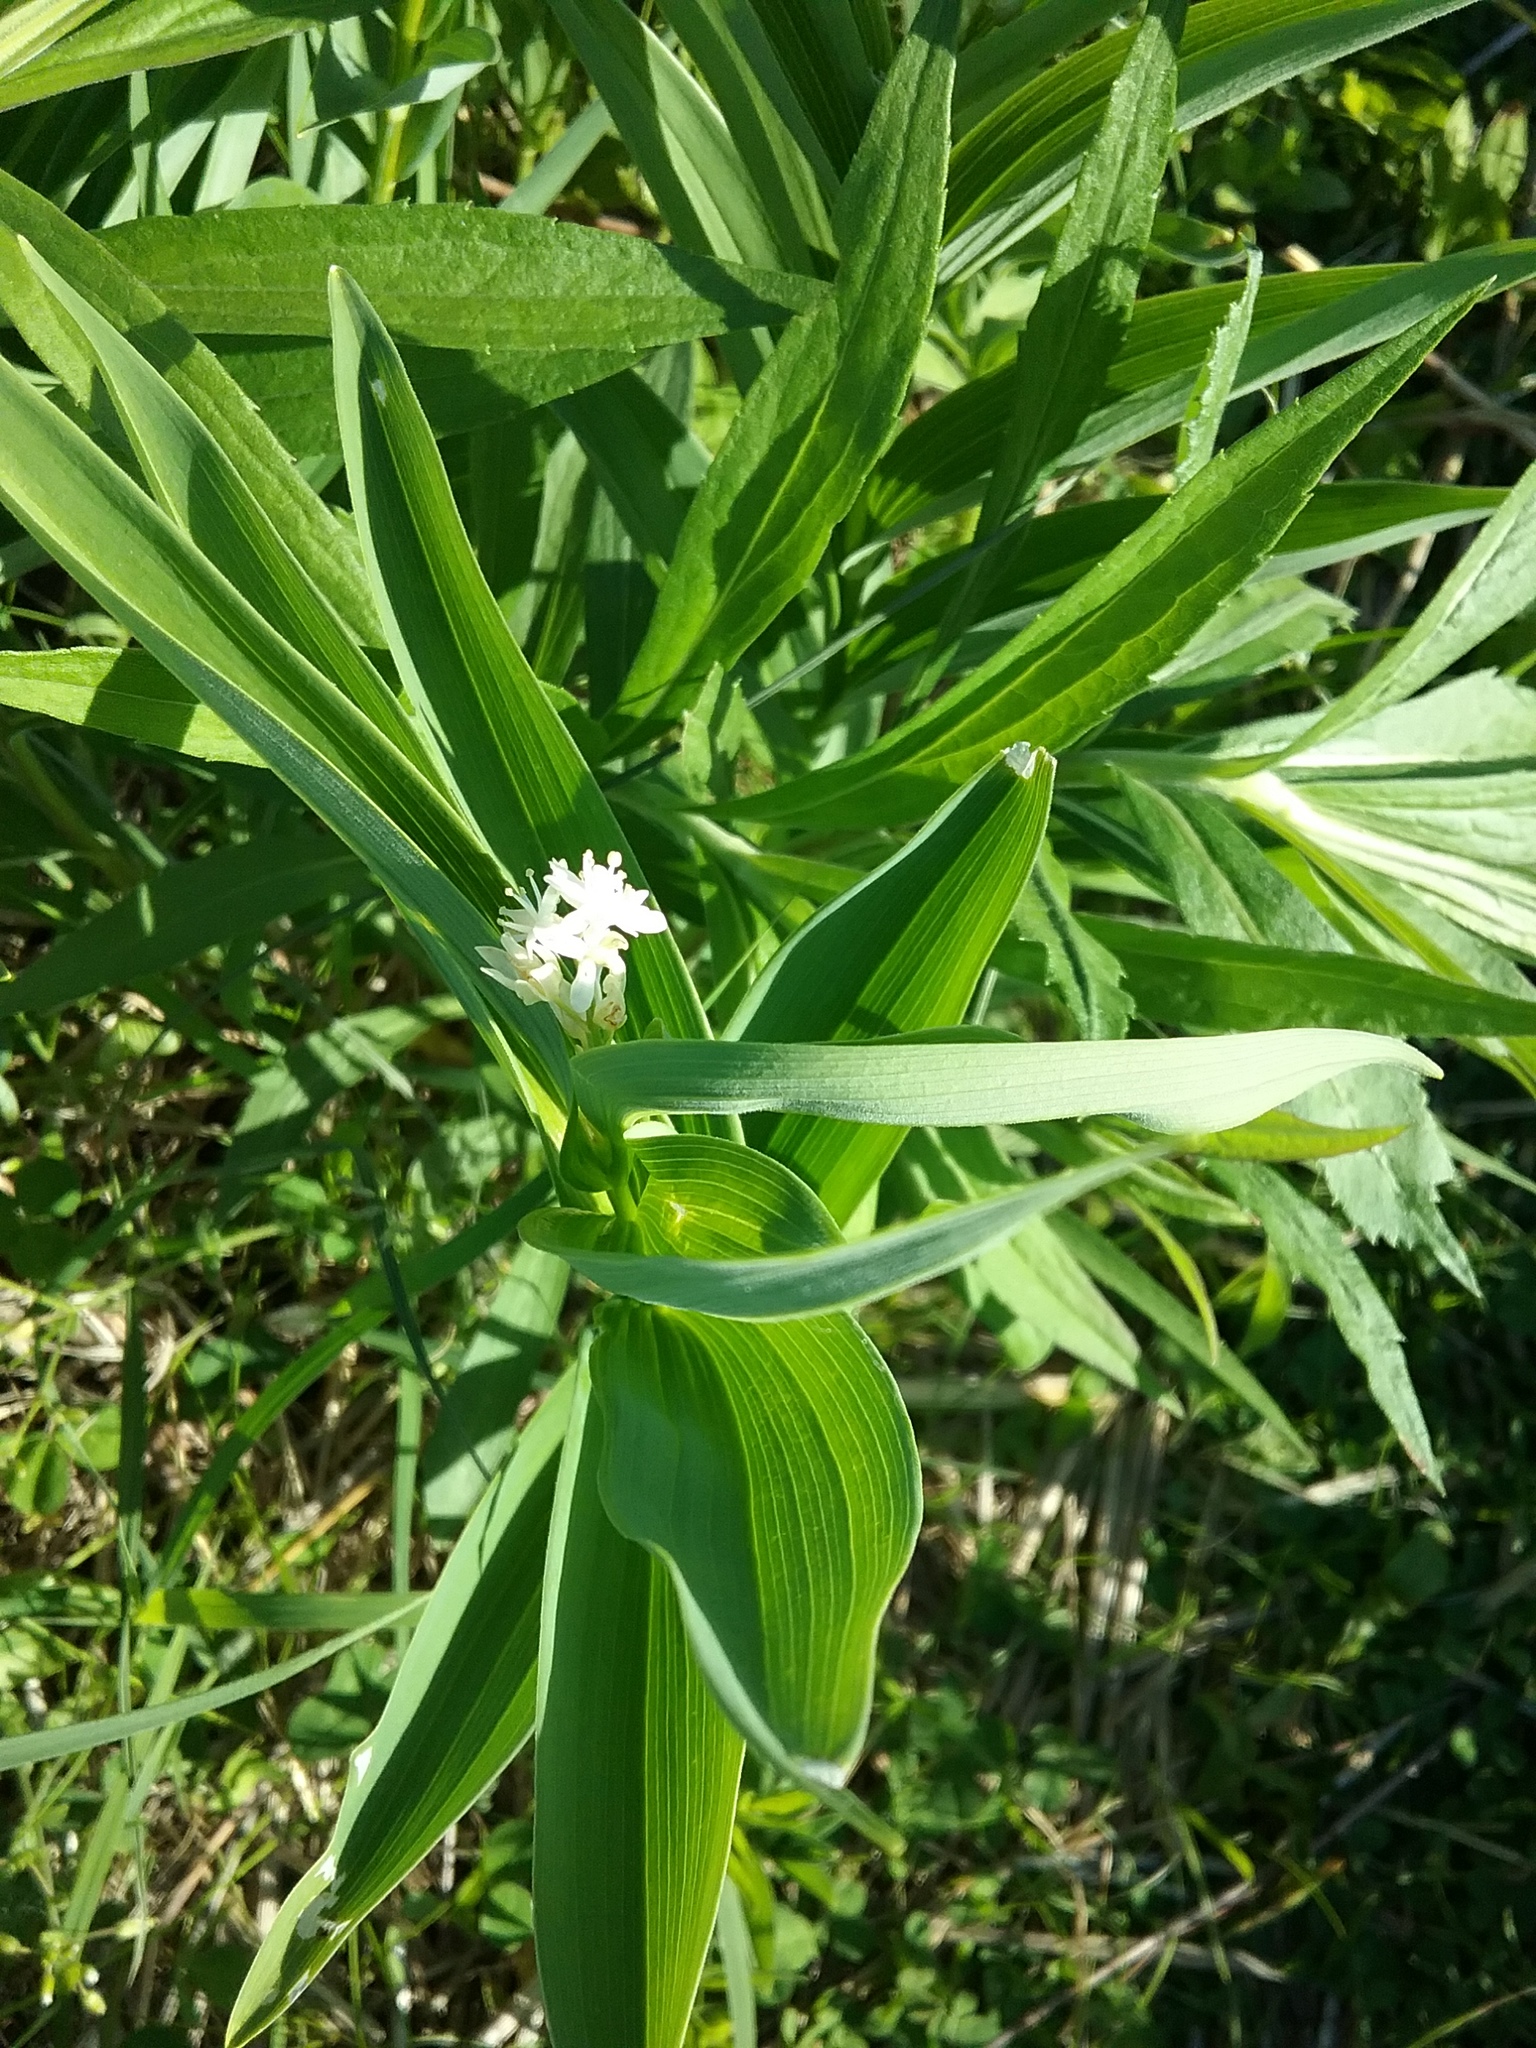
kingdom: Plantae
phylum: Tracheophyta
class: Liliopsida
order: Asparagales
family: Asparagaceae
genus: Maianthemum
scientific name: Maianthemum stellatum
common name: Little false solomon's seal
